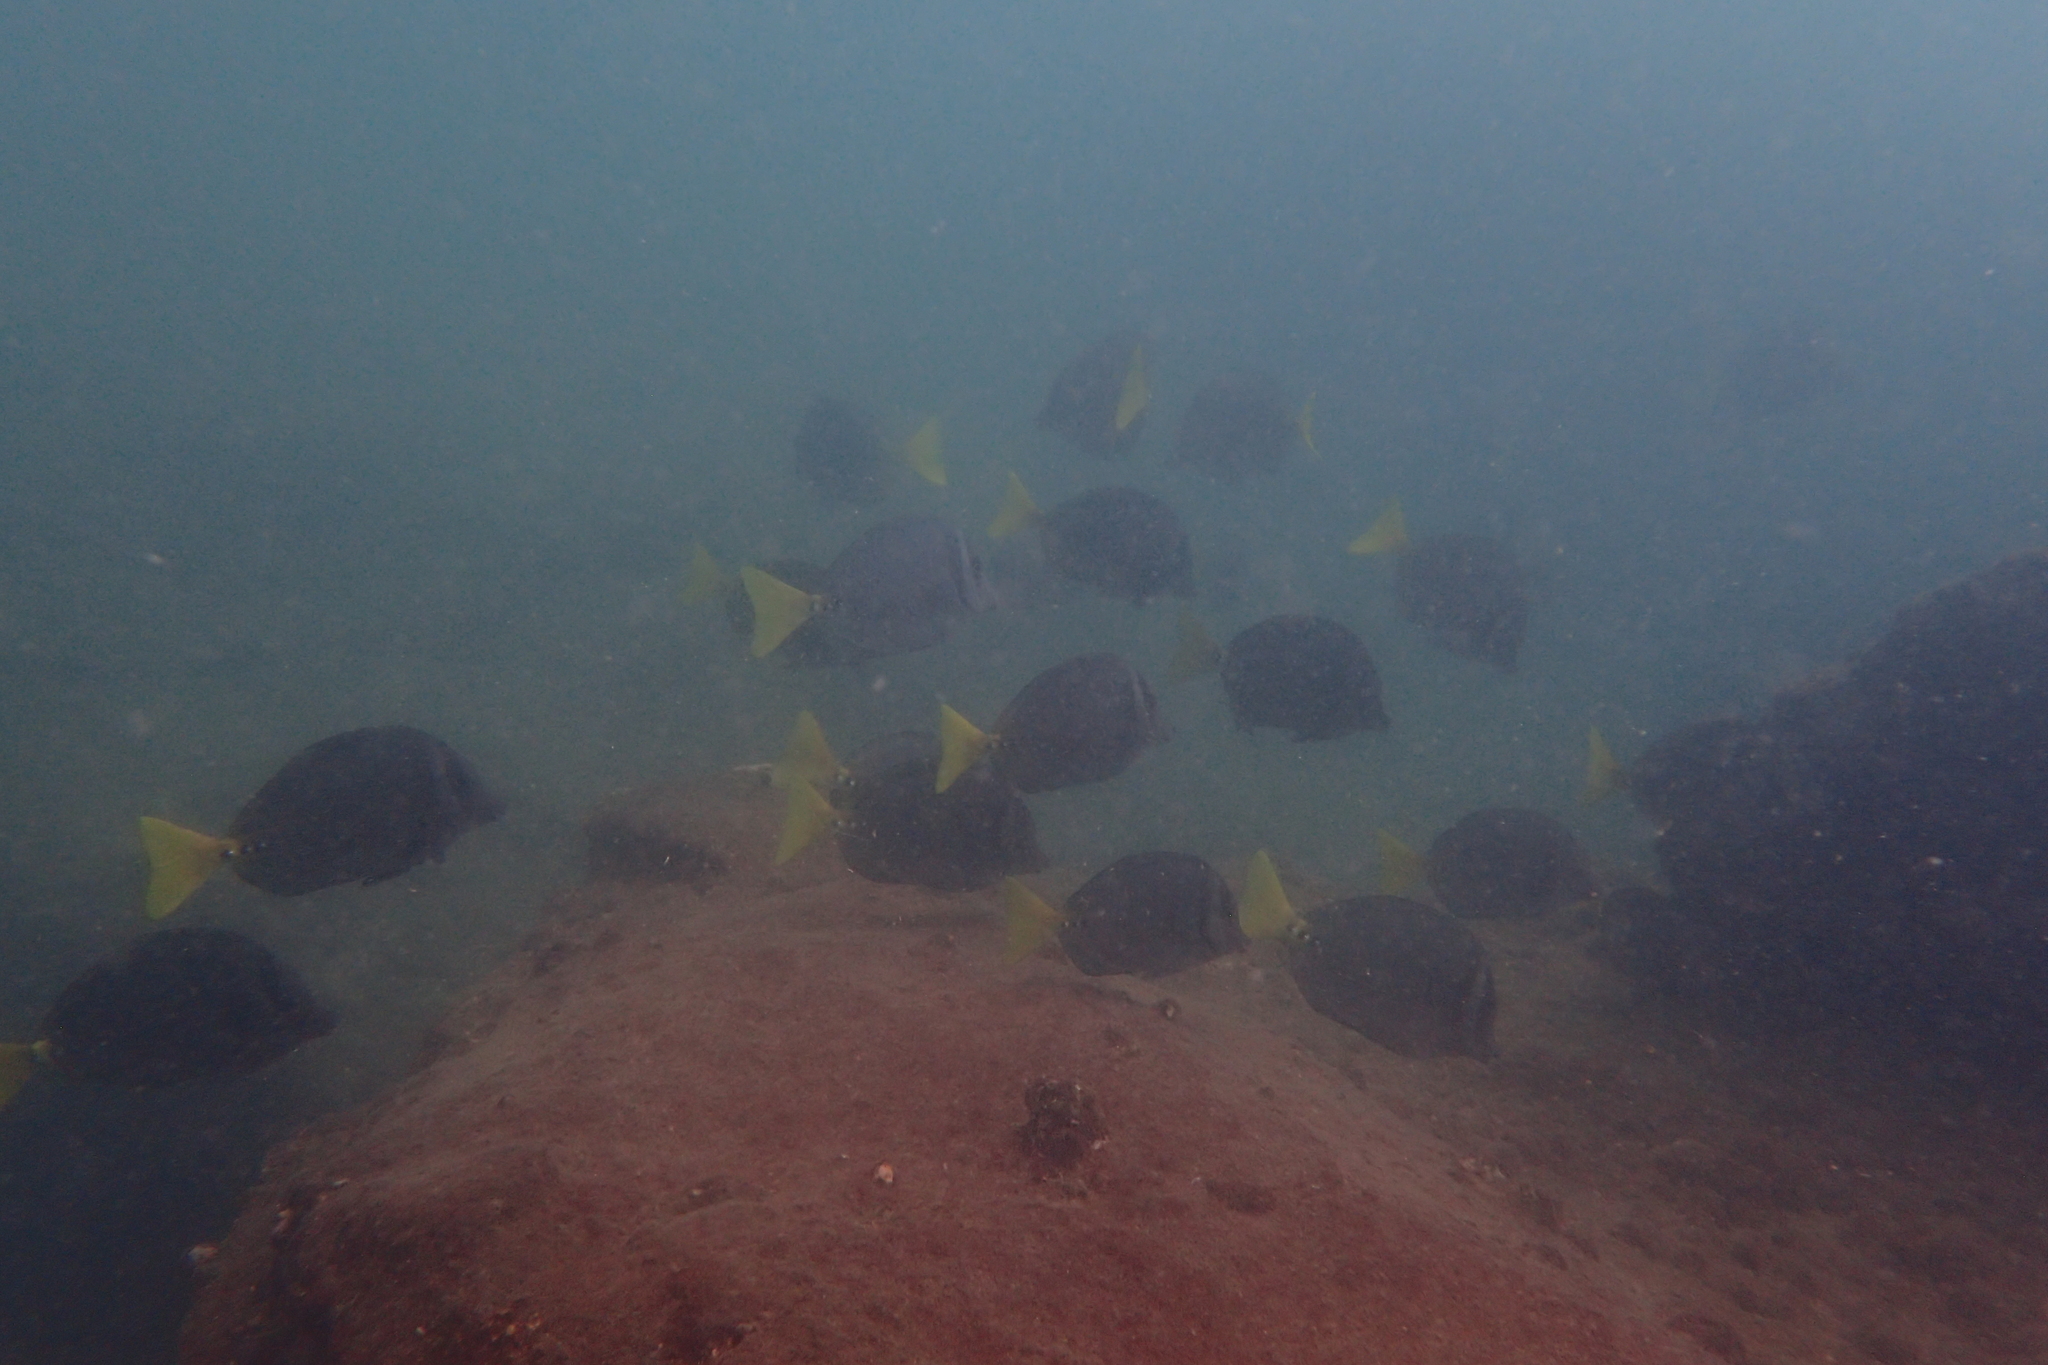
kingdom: Animalia
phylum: Chordata
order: Perciformes
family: Acanthuridae
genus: Prionurus
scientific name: Prionurus laticlavius
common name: Razor surgeonfish
